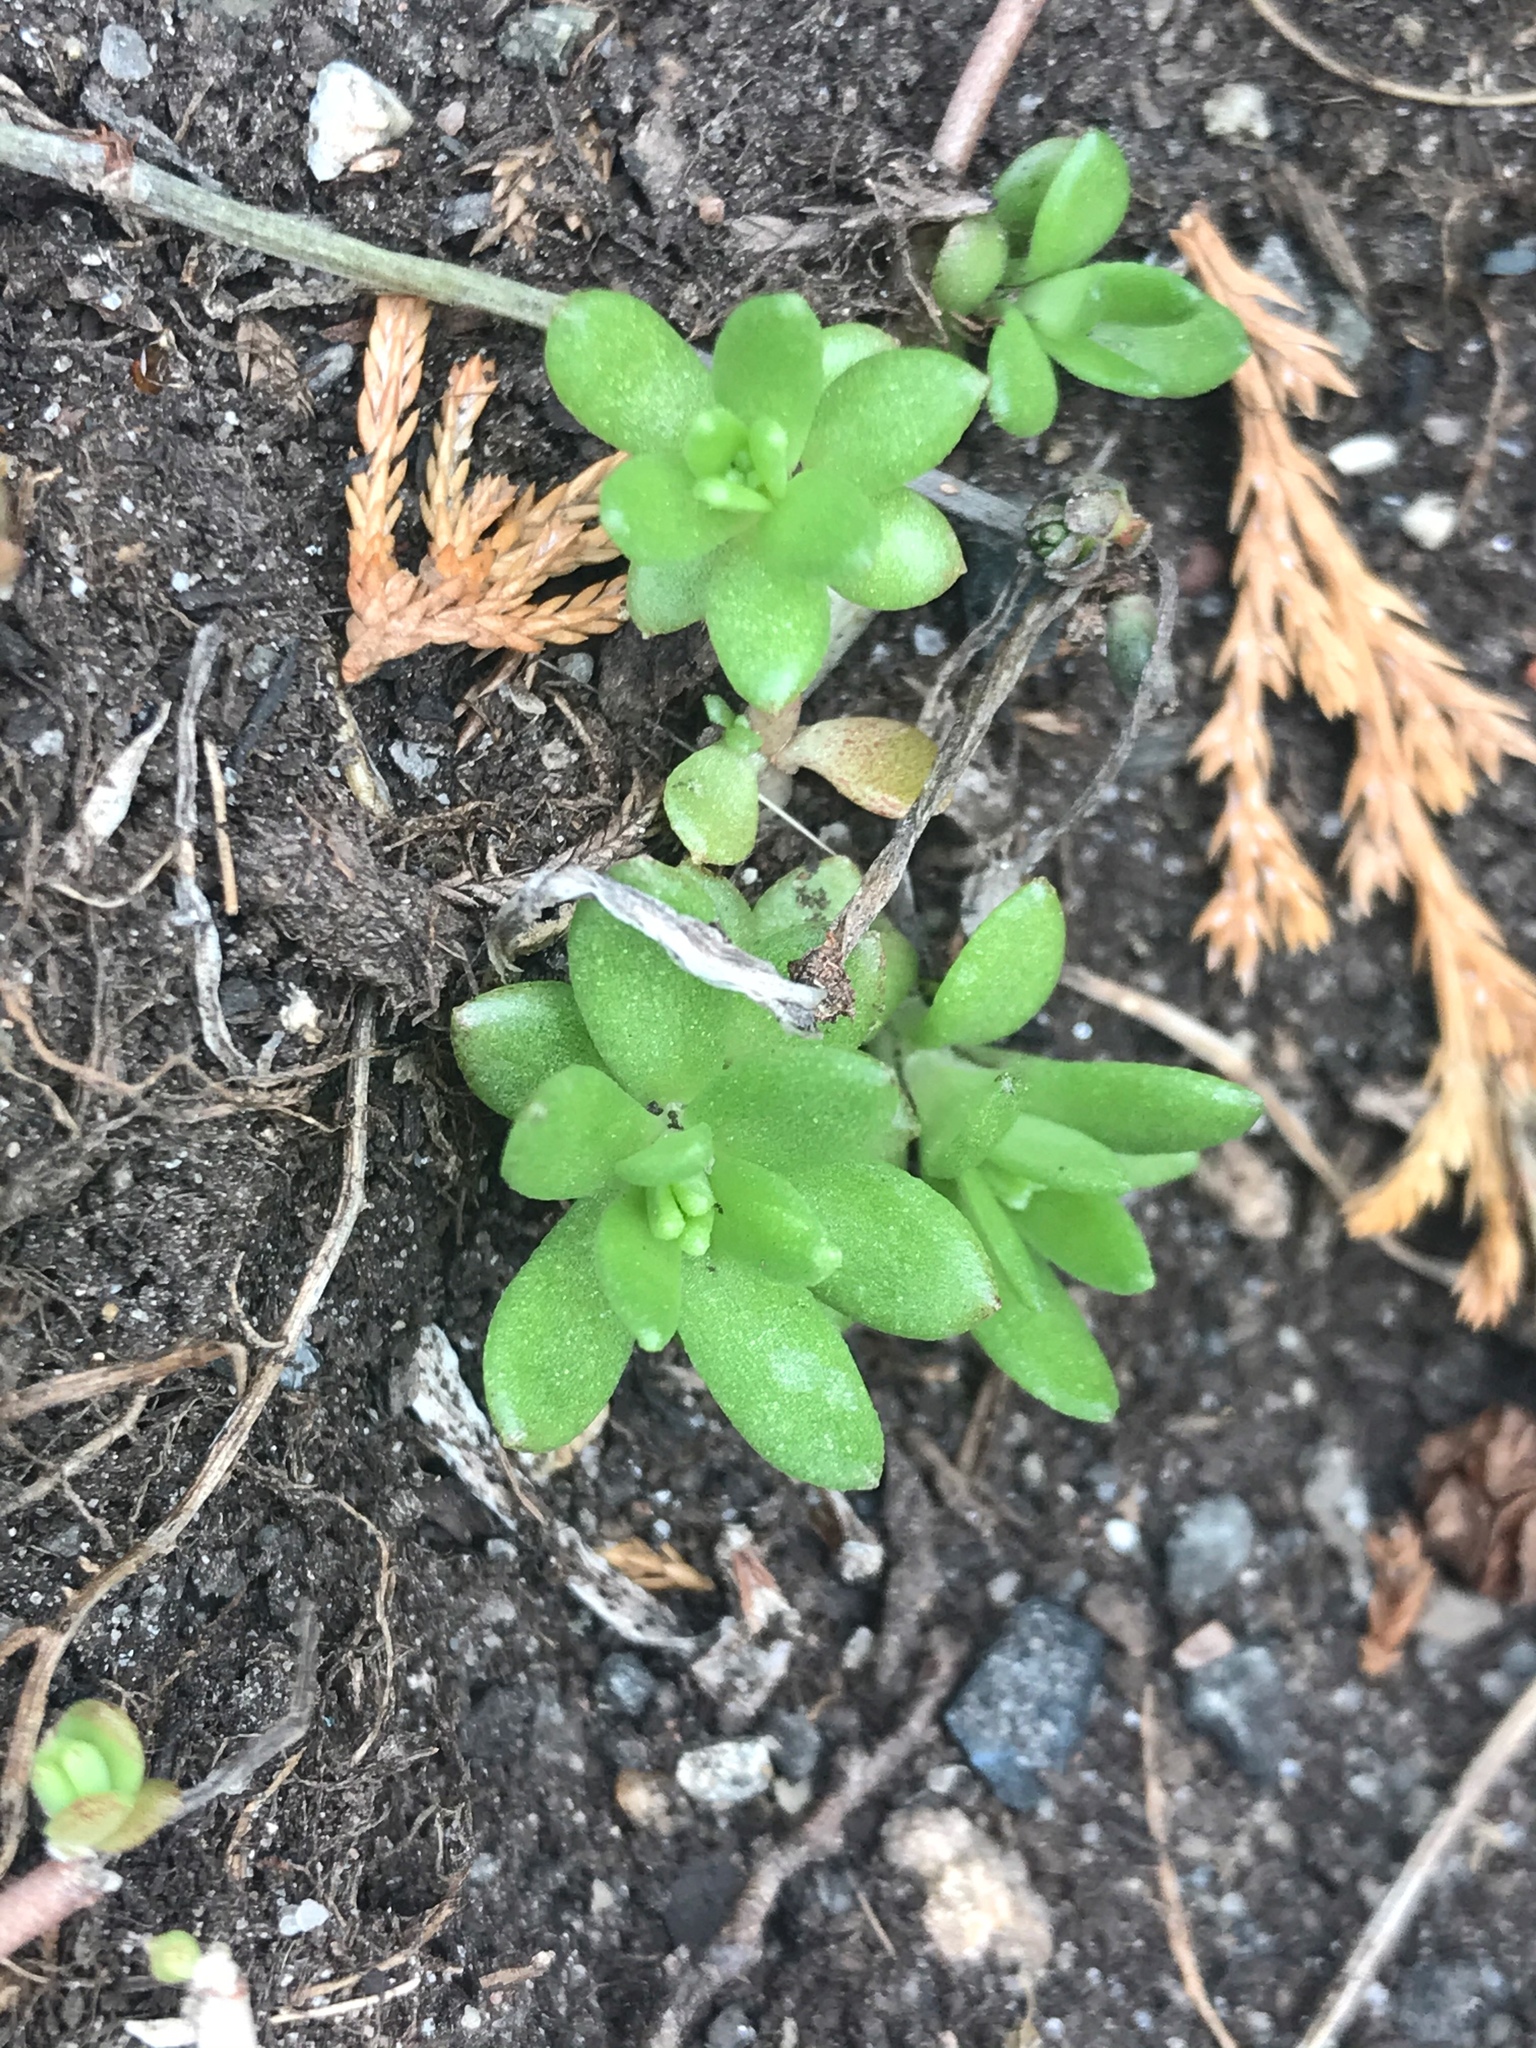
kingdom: Plantae
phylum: Tracheophyta
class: Magnoliopsida
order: Saxifragales
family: Crassulaceae
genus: Sedum
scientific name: Sedum sarmentosum
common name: Stringy stonecrop
